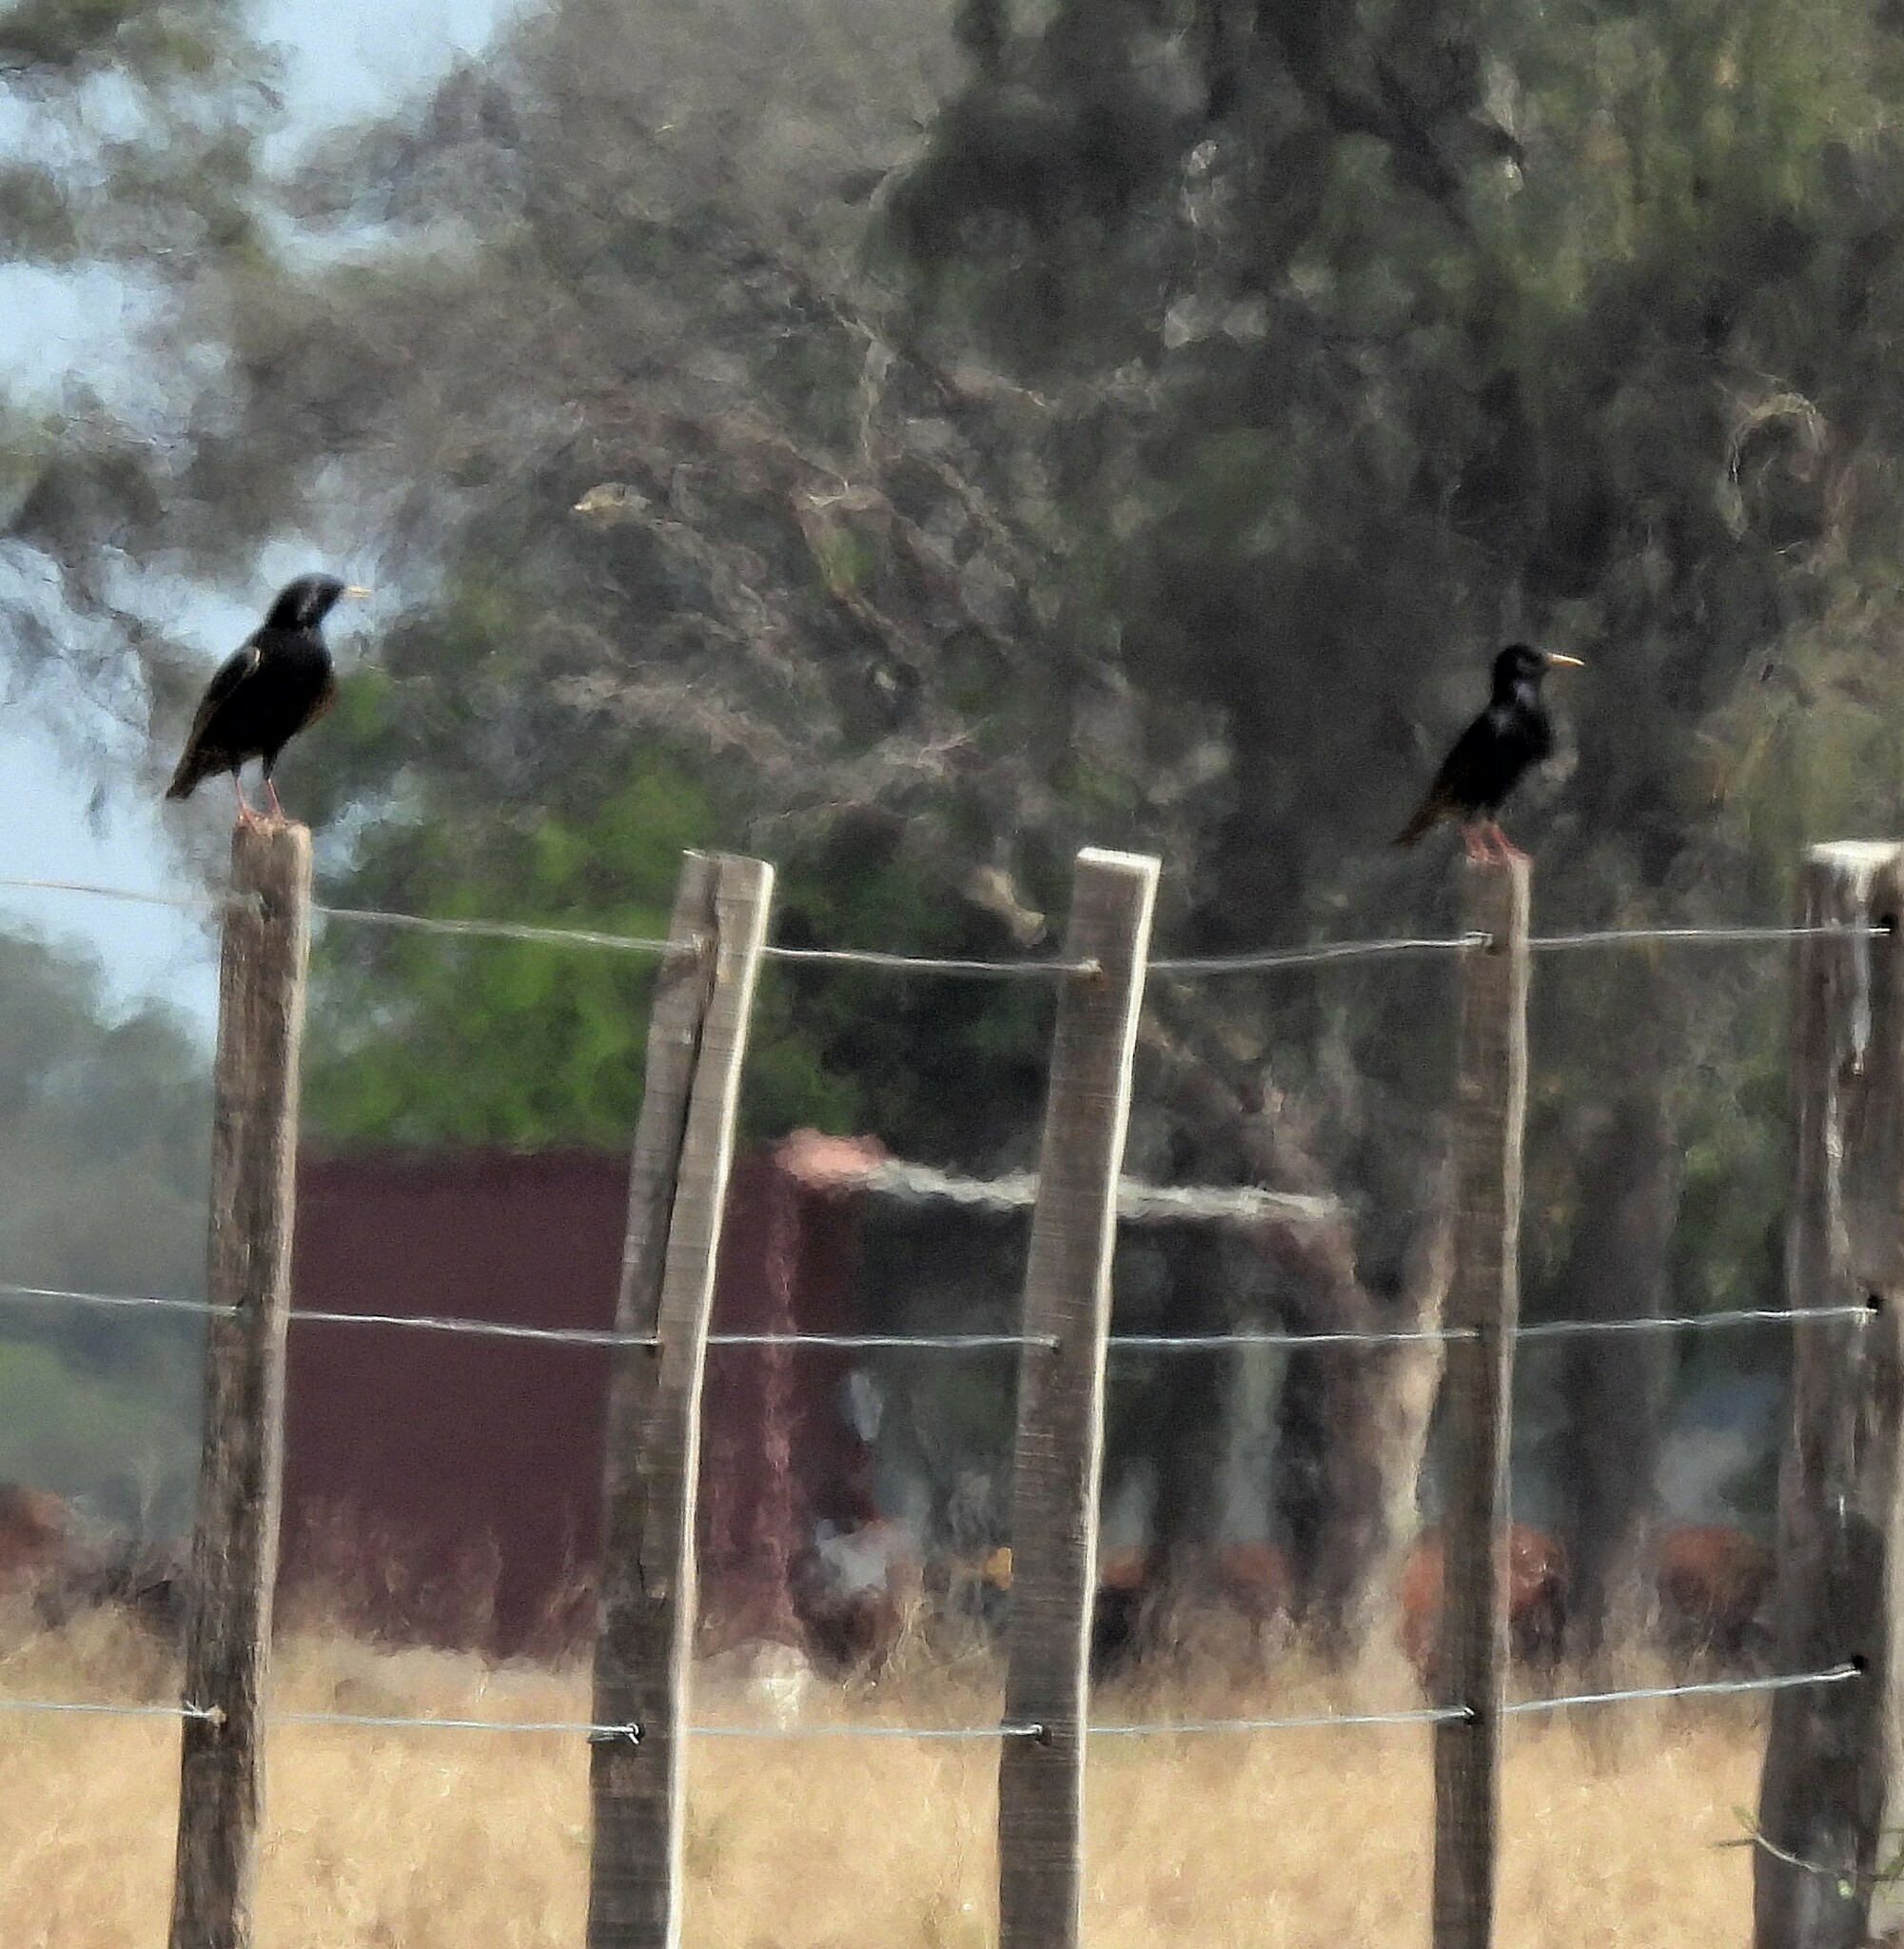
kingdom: Animalia
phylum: Chordata
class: Aves
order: Passeriformes
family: Sturnidae
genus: Sturnus
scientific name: Sturnus vulgaris
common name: Common starling
